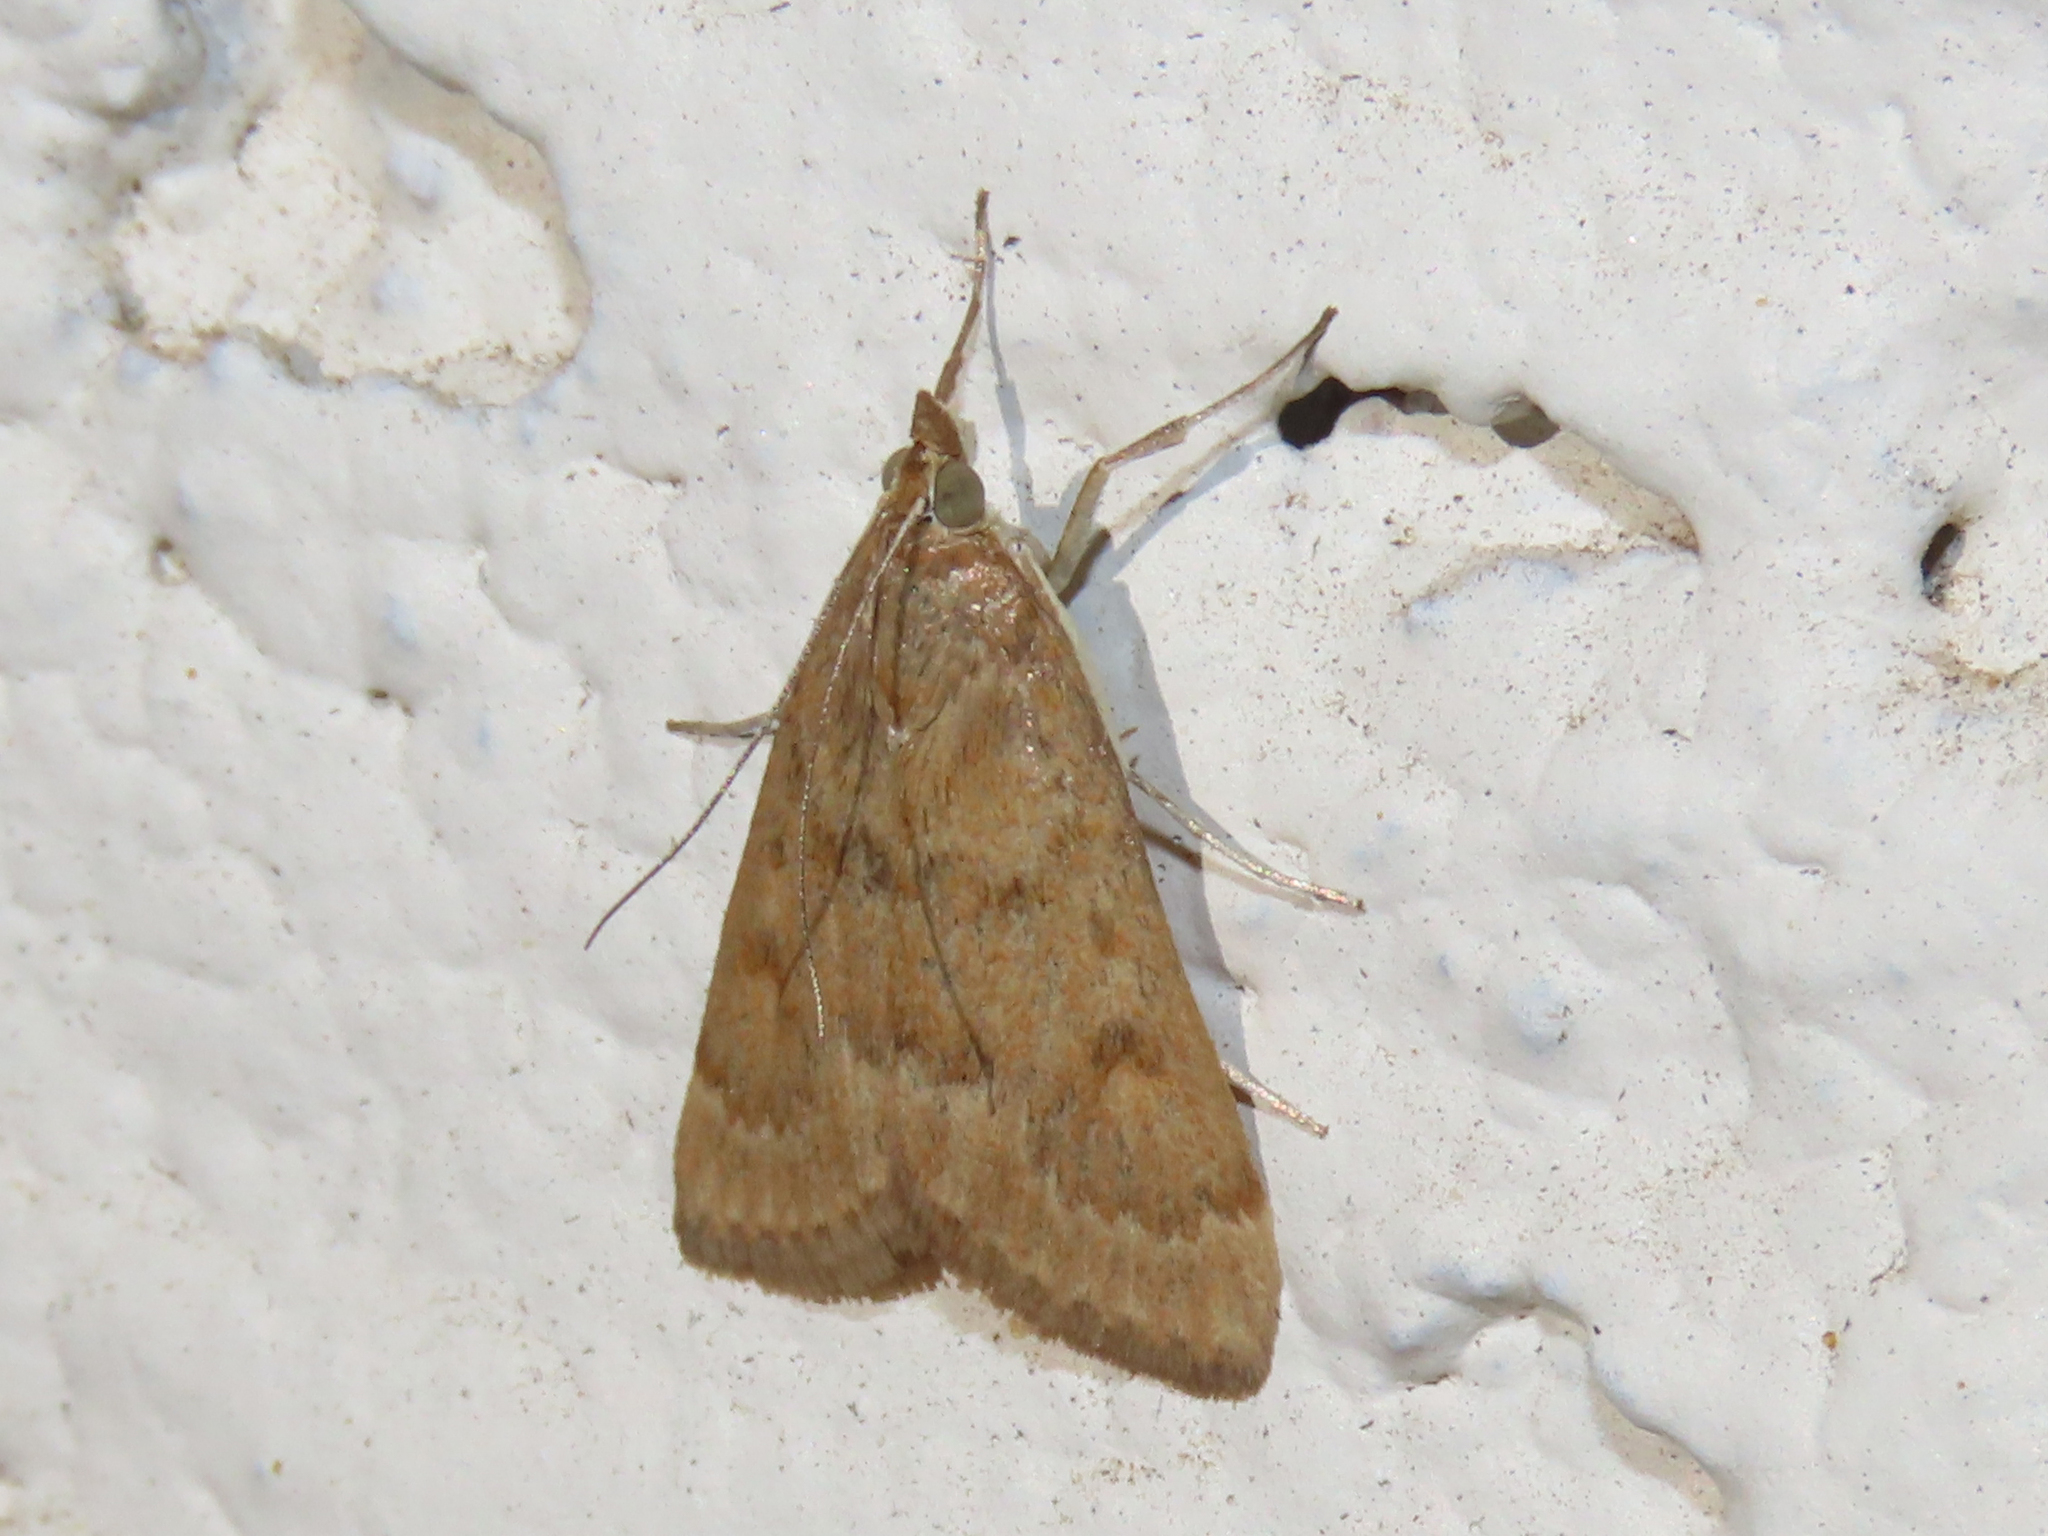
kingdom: Animalia
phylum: Arthropoda
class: Insecta
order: Lepidoptera
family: Crambidae
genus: Achyra
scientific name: Achyra rantalis
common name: Garden webworm
